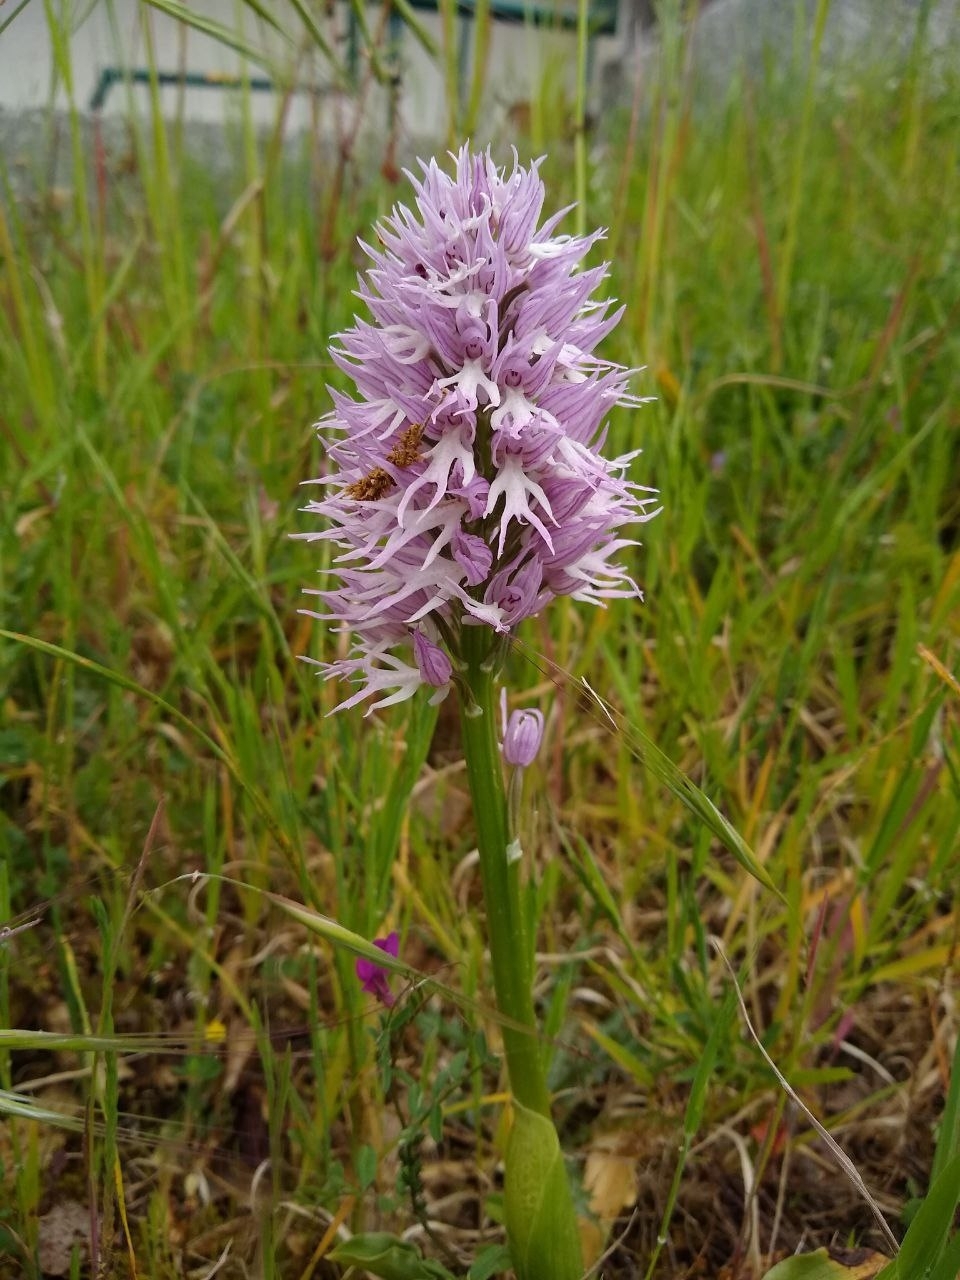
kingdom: Plantae
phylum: Tracheophyta
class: Liliopsida
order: Asparagales
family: Orchidaceae
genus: Orchis
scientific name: Orchis italica
